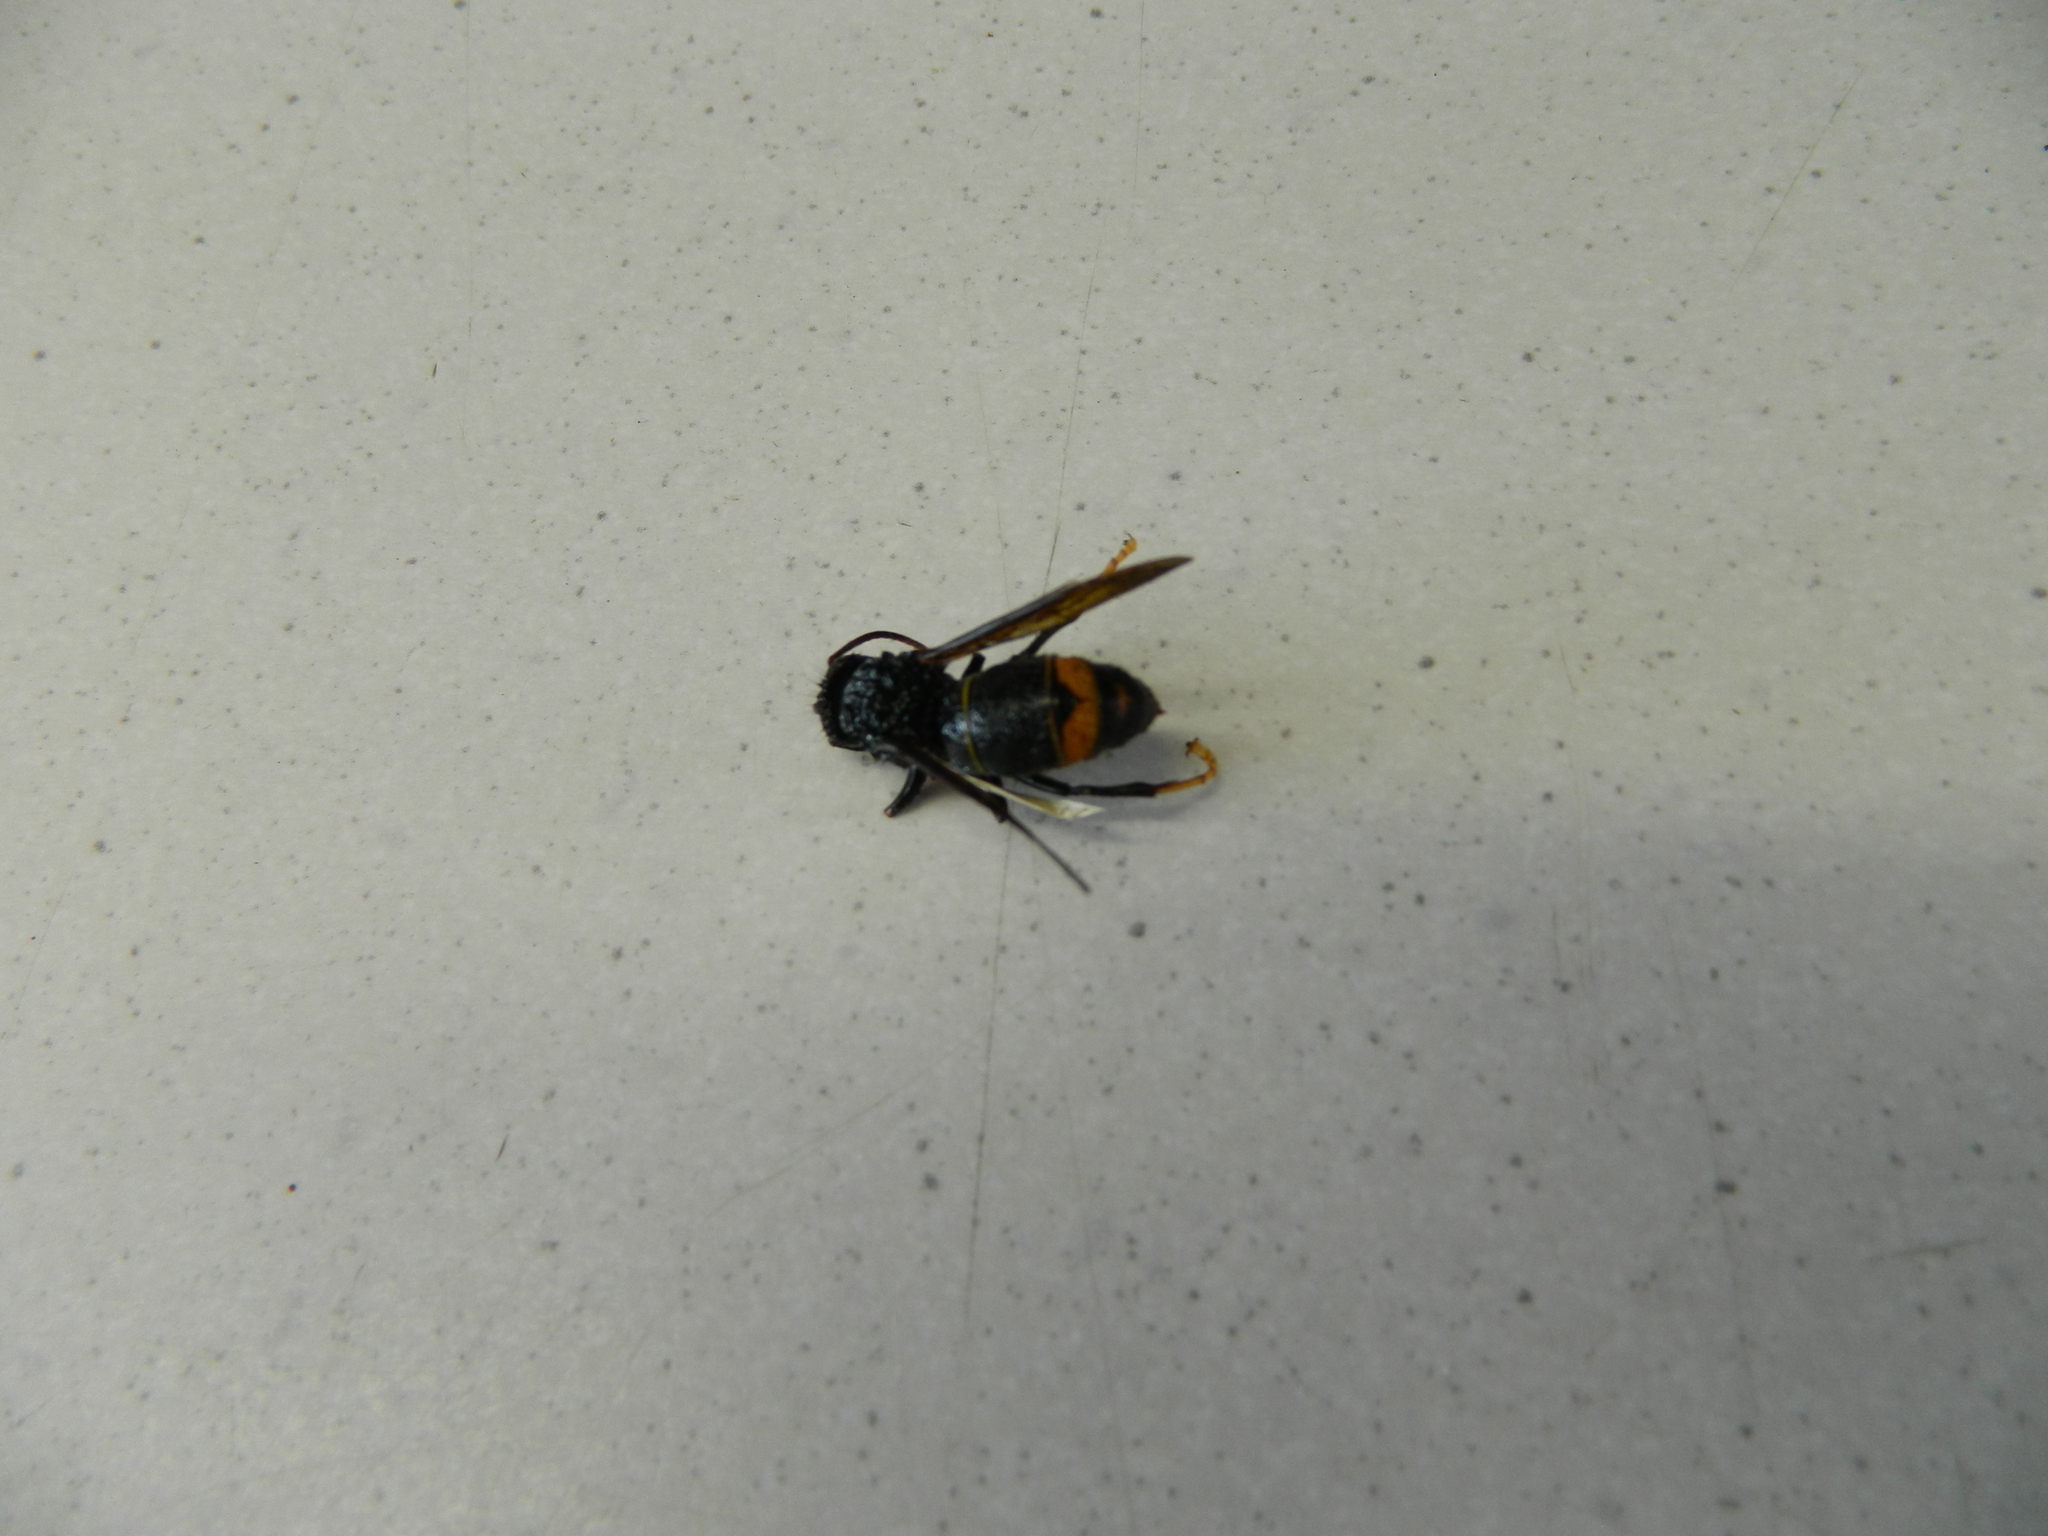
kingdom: Animalia
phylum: Arthropoda
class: Insecta
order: Hymenoptera
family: Vespidae
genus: Vespa
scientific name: Vespa velutina
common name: Asian hornet
